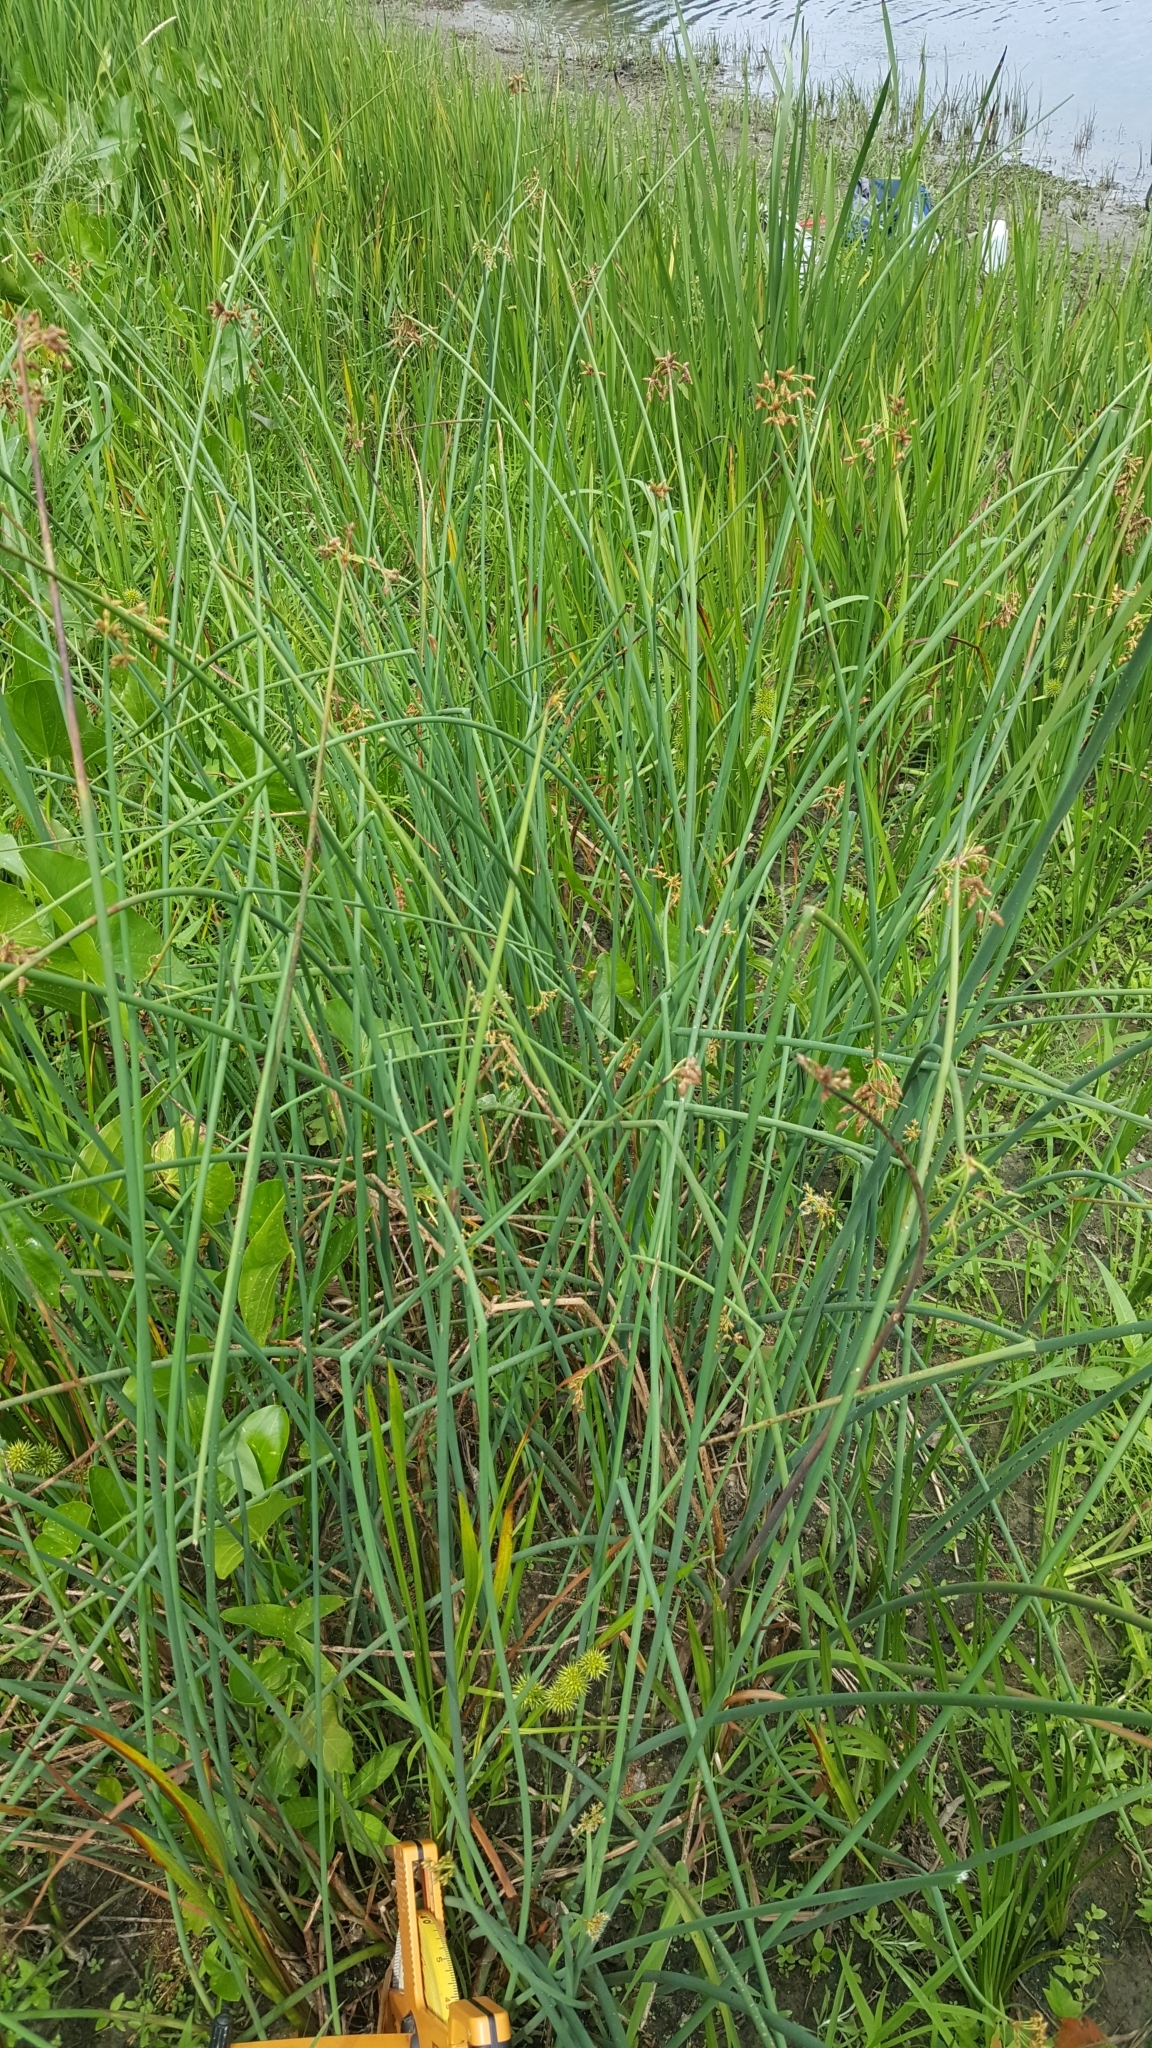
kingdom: Plantae
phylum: Tracheophyta
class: Liliopsida
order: Poales
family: Cyperaceae
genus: Schoenoplectus
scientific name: Schoenoplectus tabernaemontani
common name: Grey club-rush
